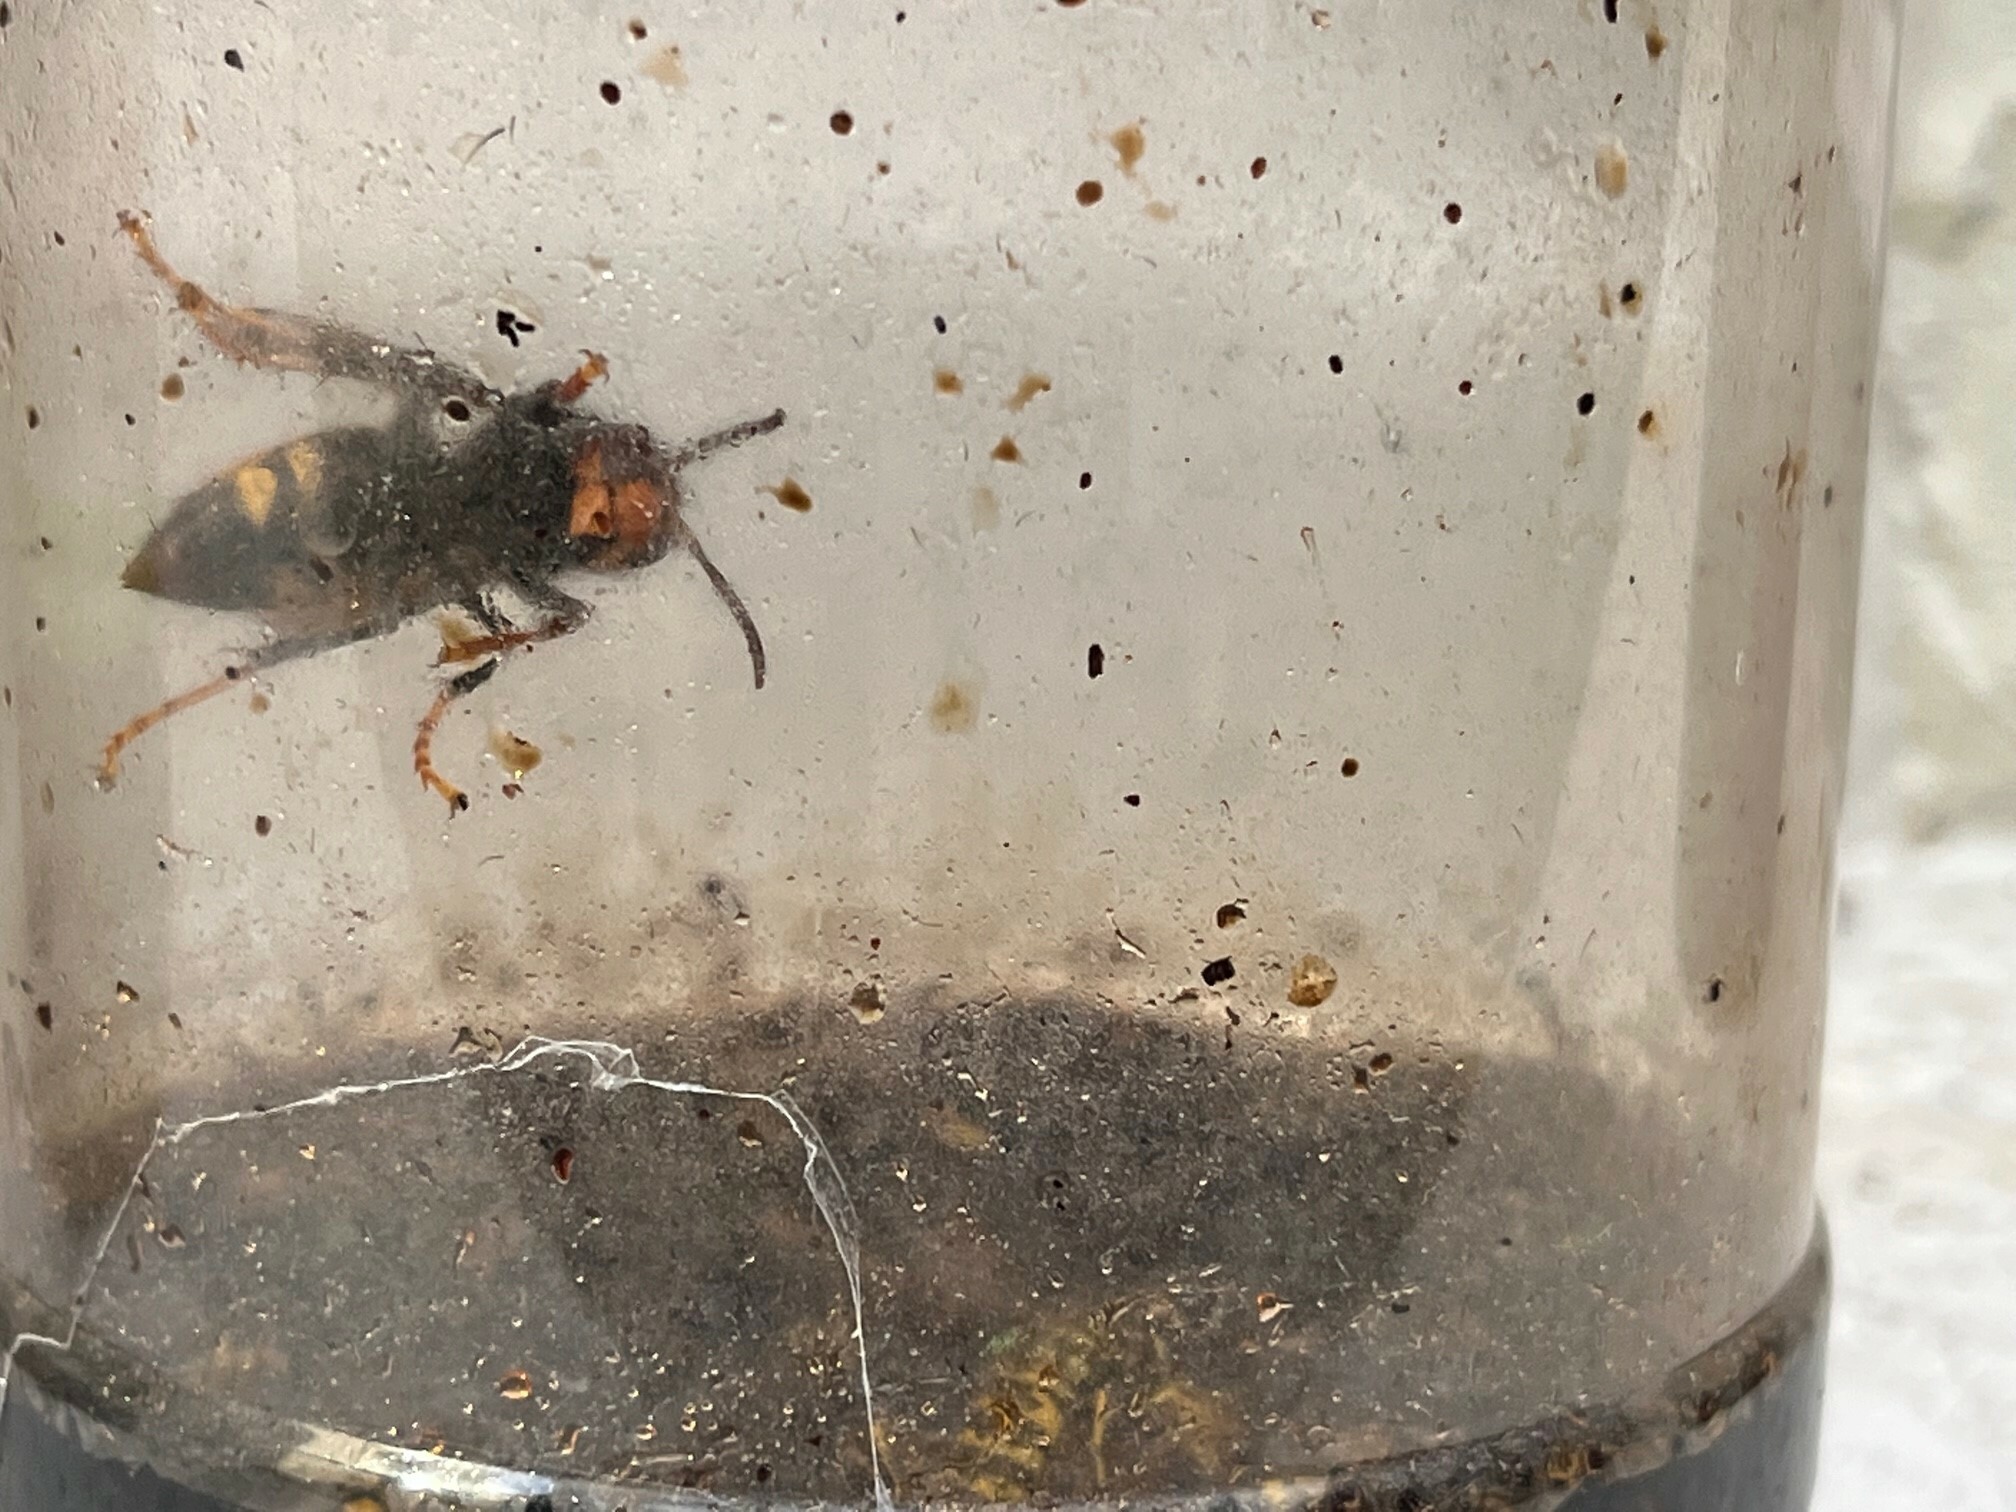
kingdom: Animalia
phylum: Arthropoda
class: Insecta
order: Hymenoptera
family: Vespidae
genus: Vespa
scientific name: Vespa velutina
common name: Asian hornet
